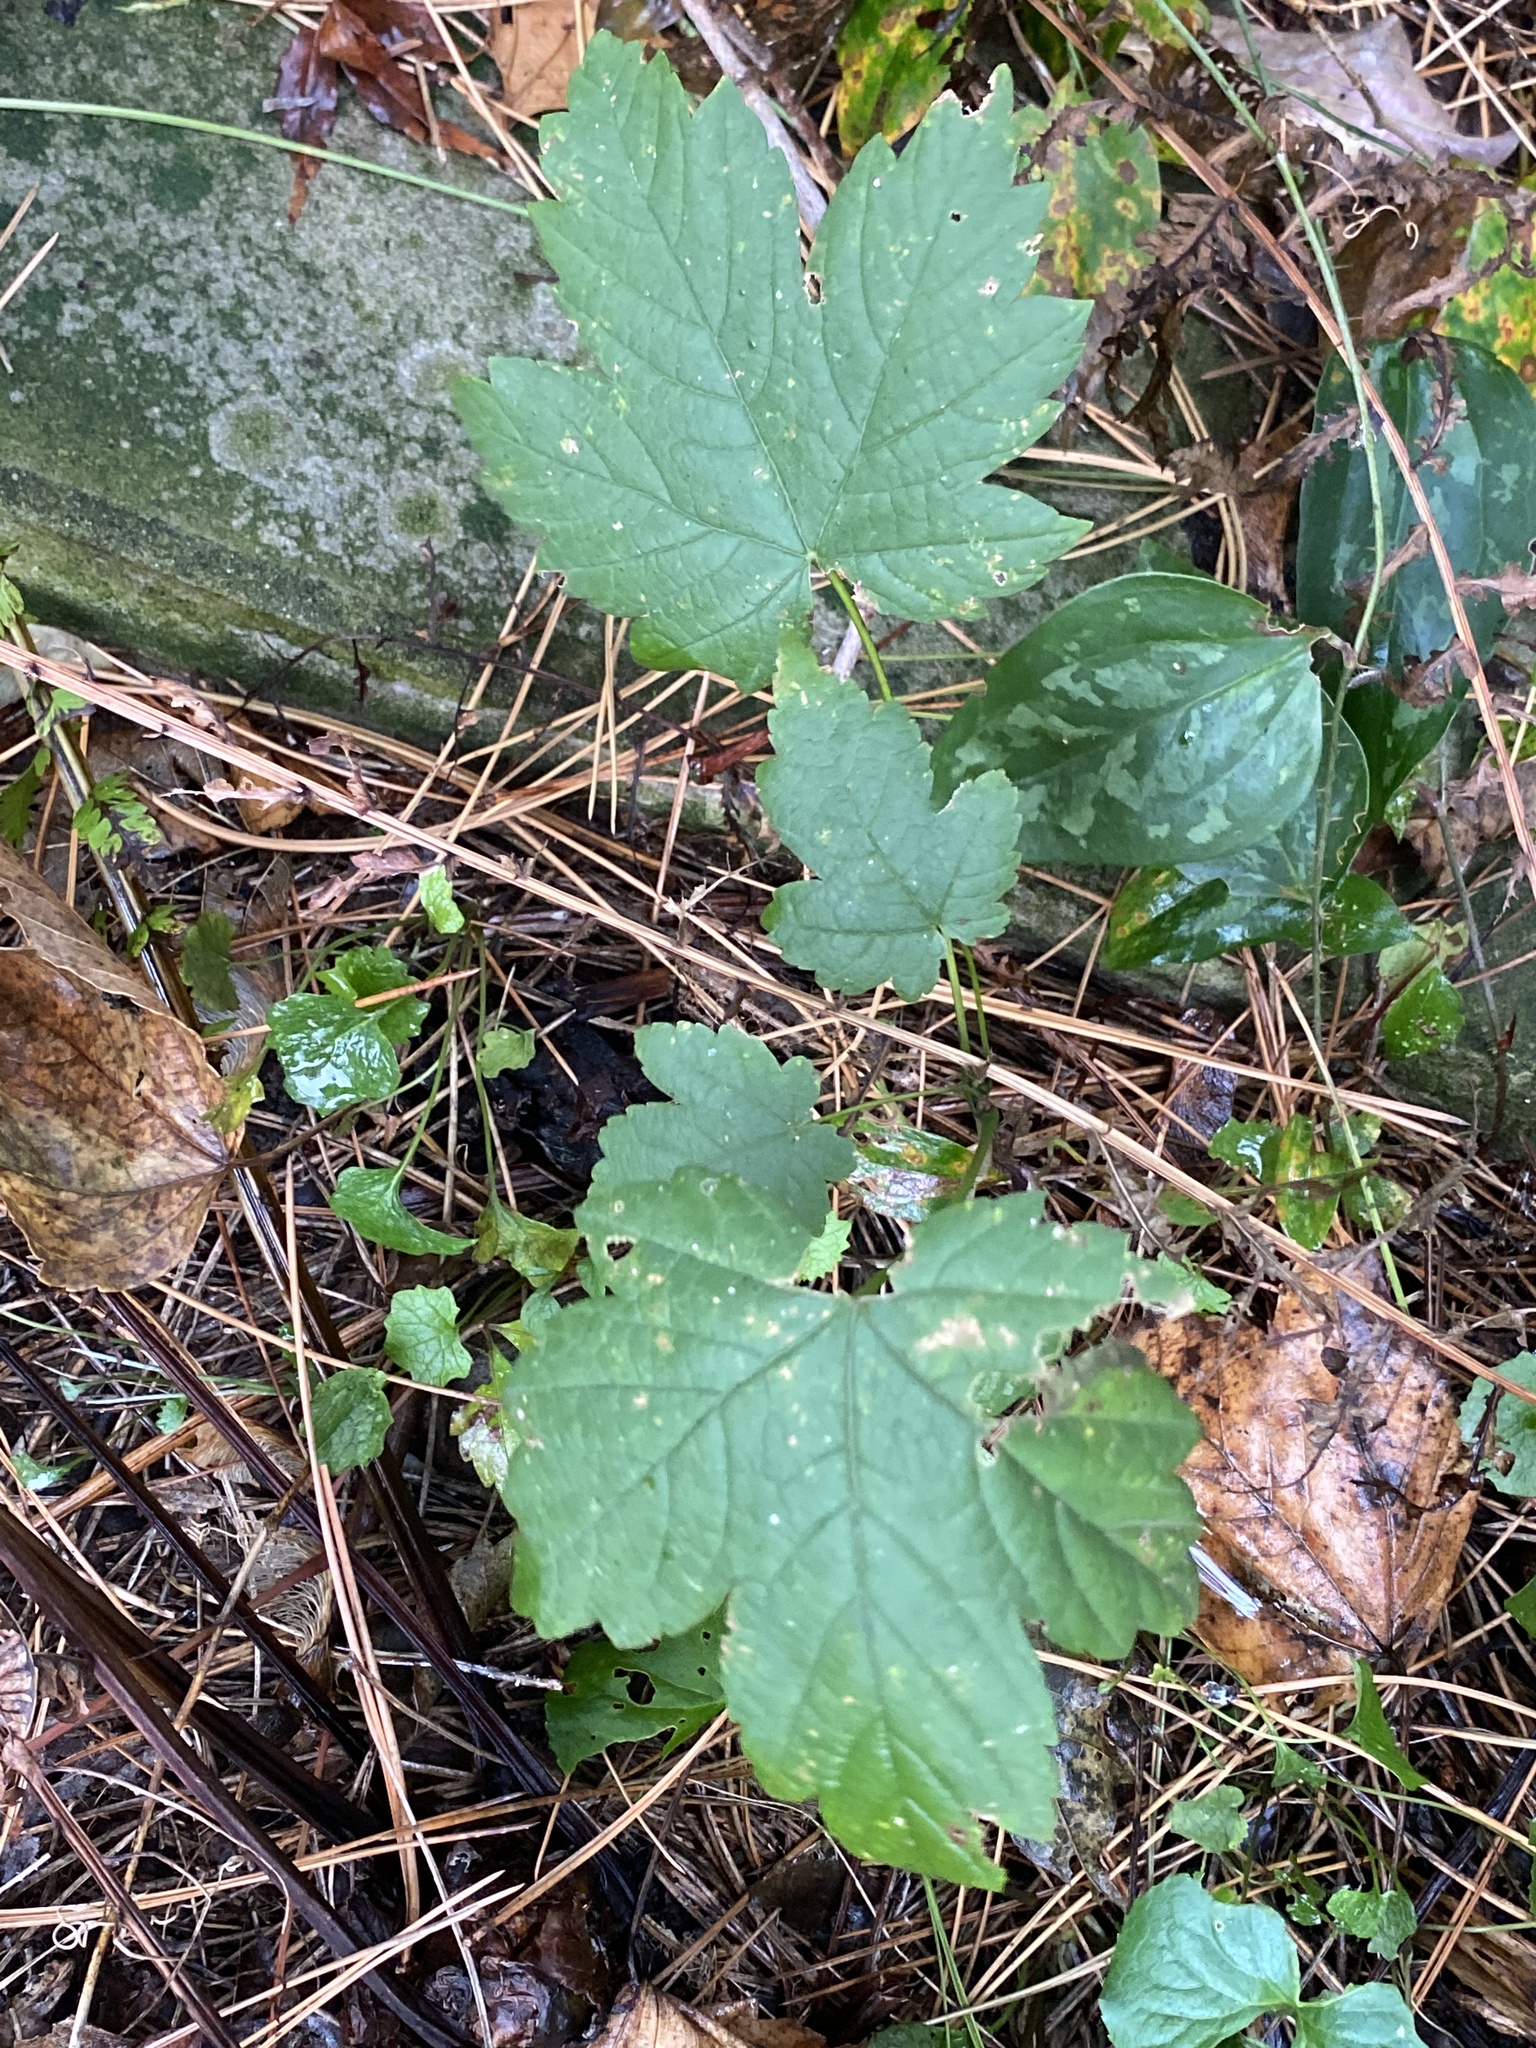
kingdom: Plantae
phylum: Tracheophyta
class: Magnoliopsida
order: Sapindales
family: Sapindaceae
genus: Acer
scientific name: Acer pseudoplatanus
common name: Sycamore
